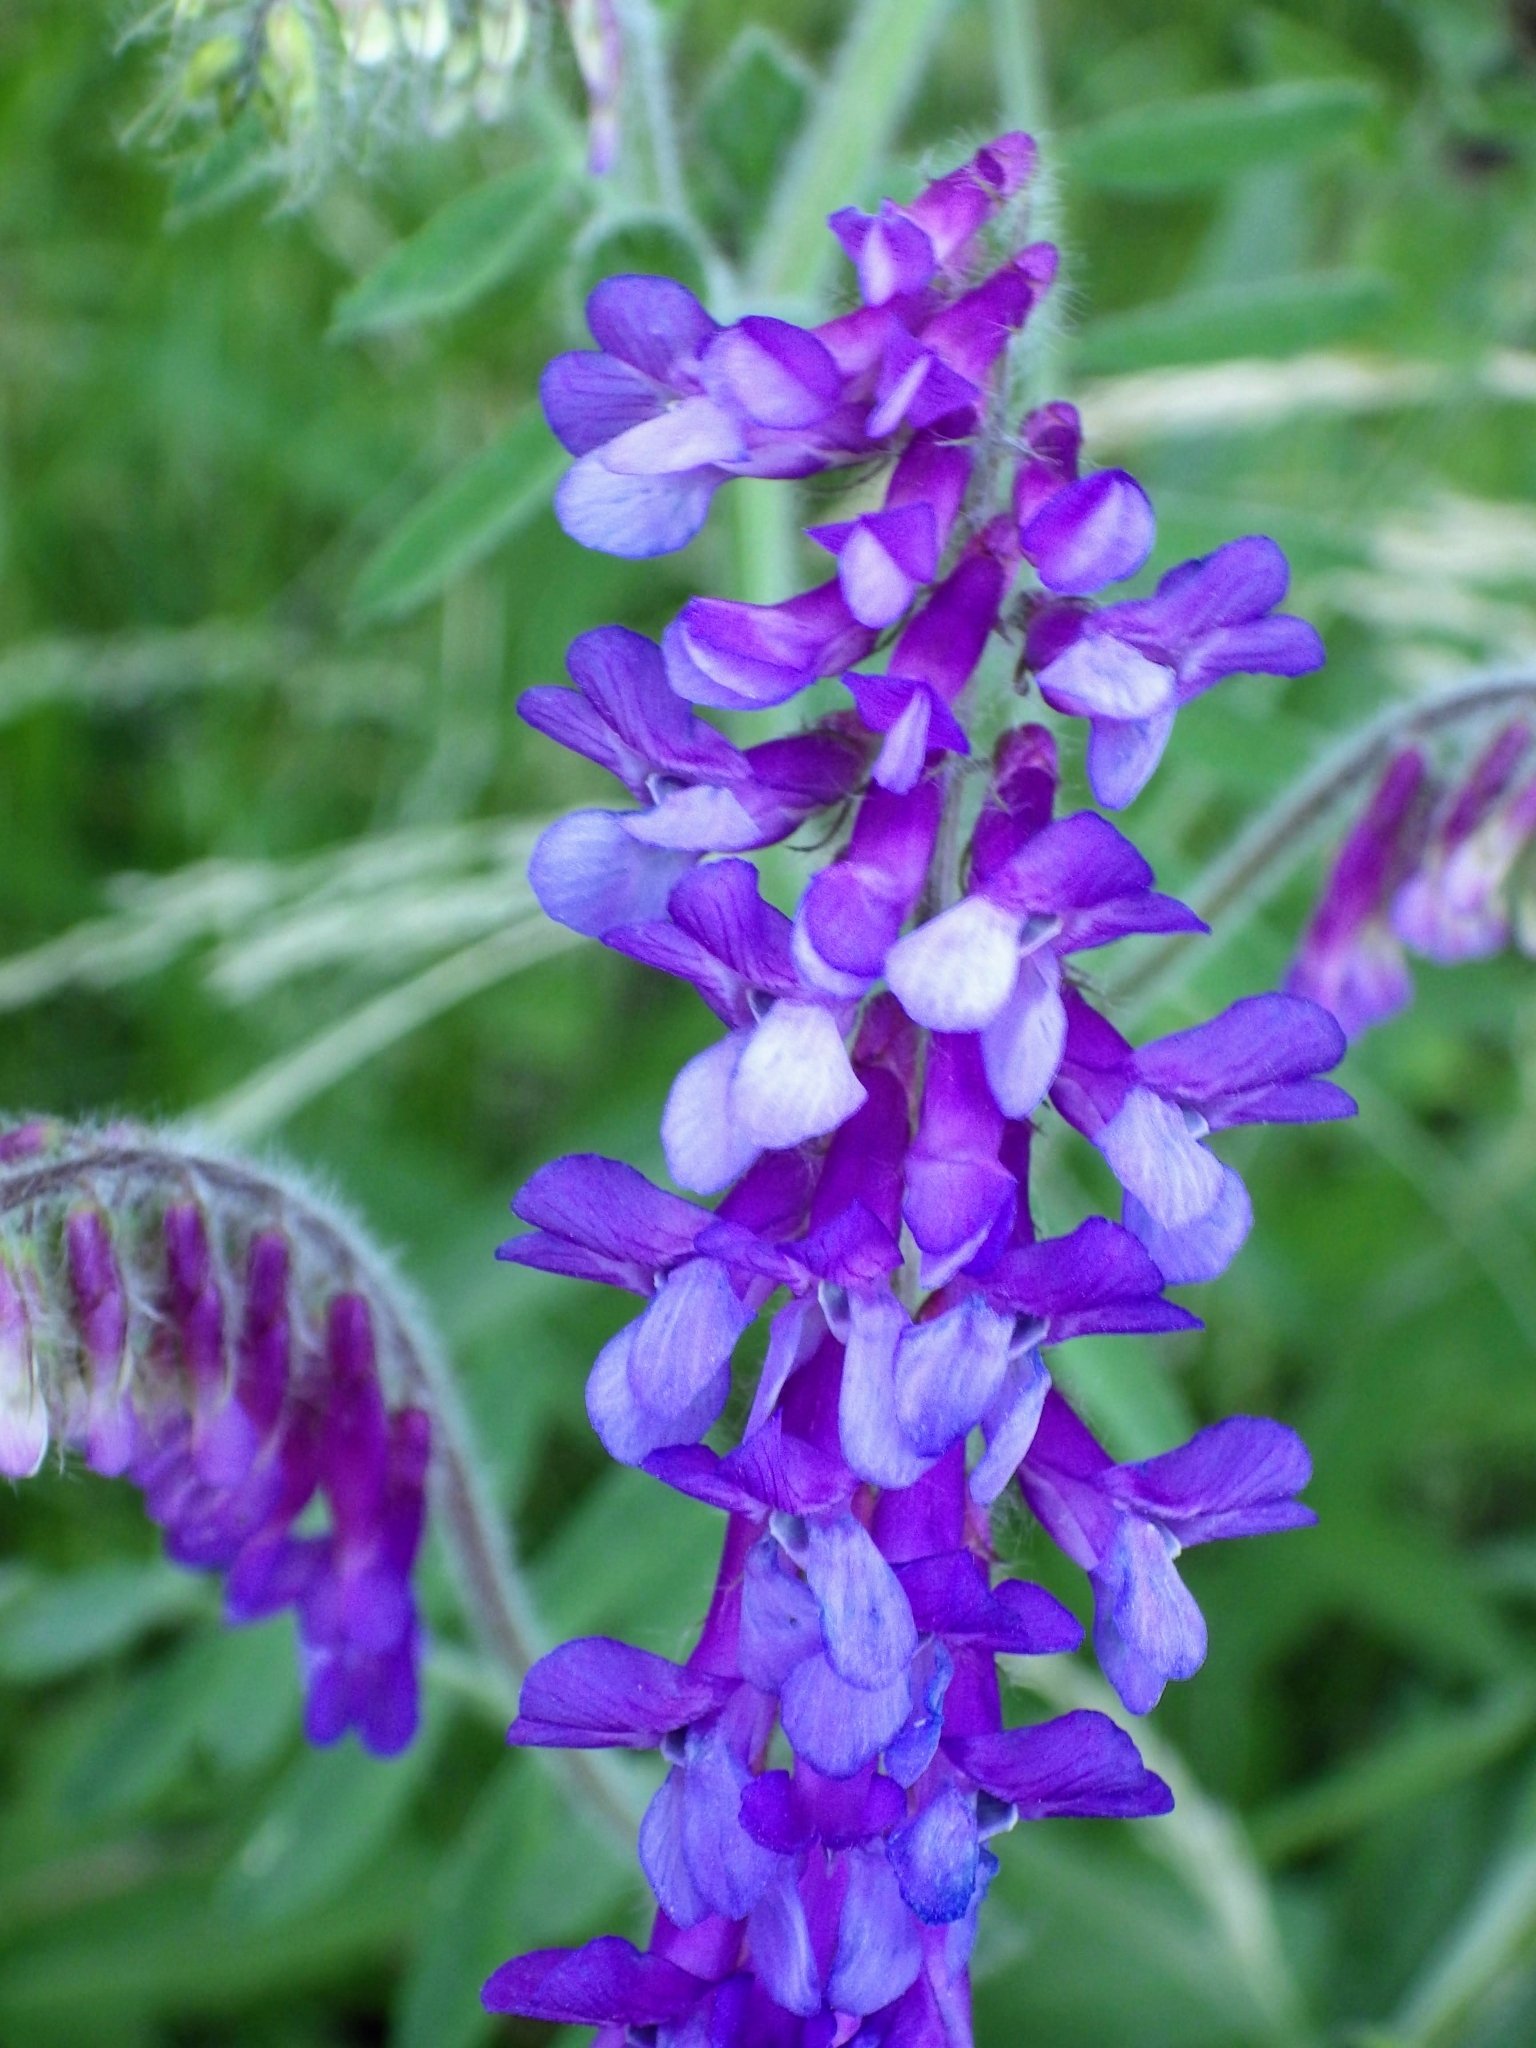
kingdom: Plantae
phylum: Tracheophyta
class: Magnoliopsida
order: Fabales
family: Fabaceae
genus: Vicia
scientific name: Vicia villosa
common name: Fodder vetch
